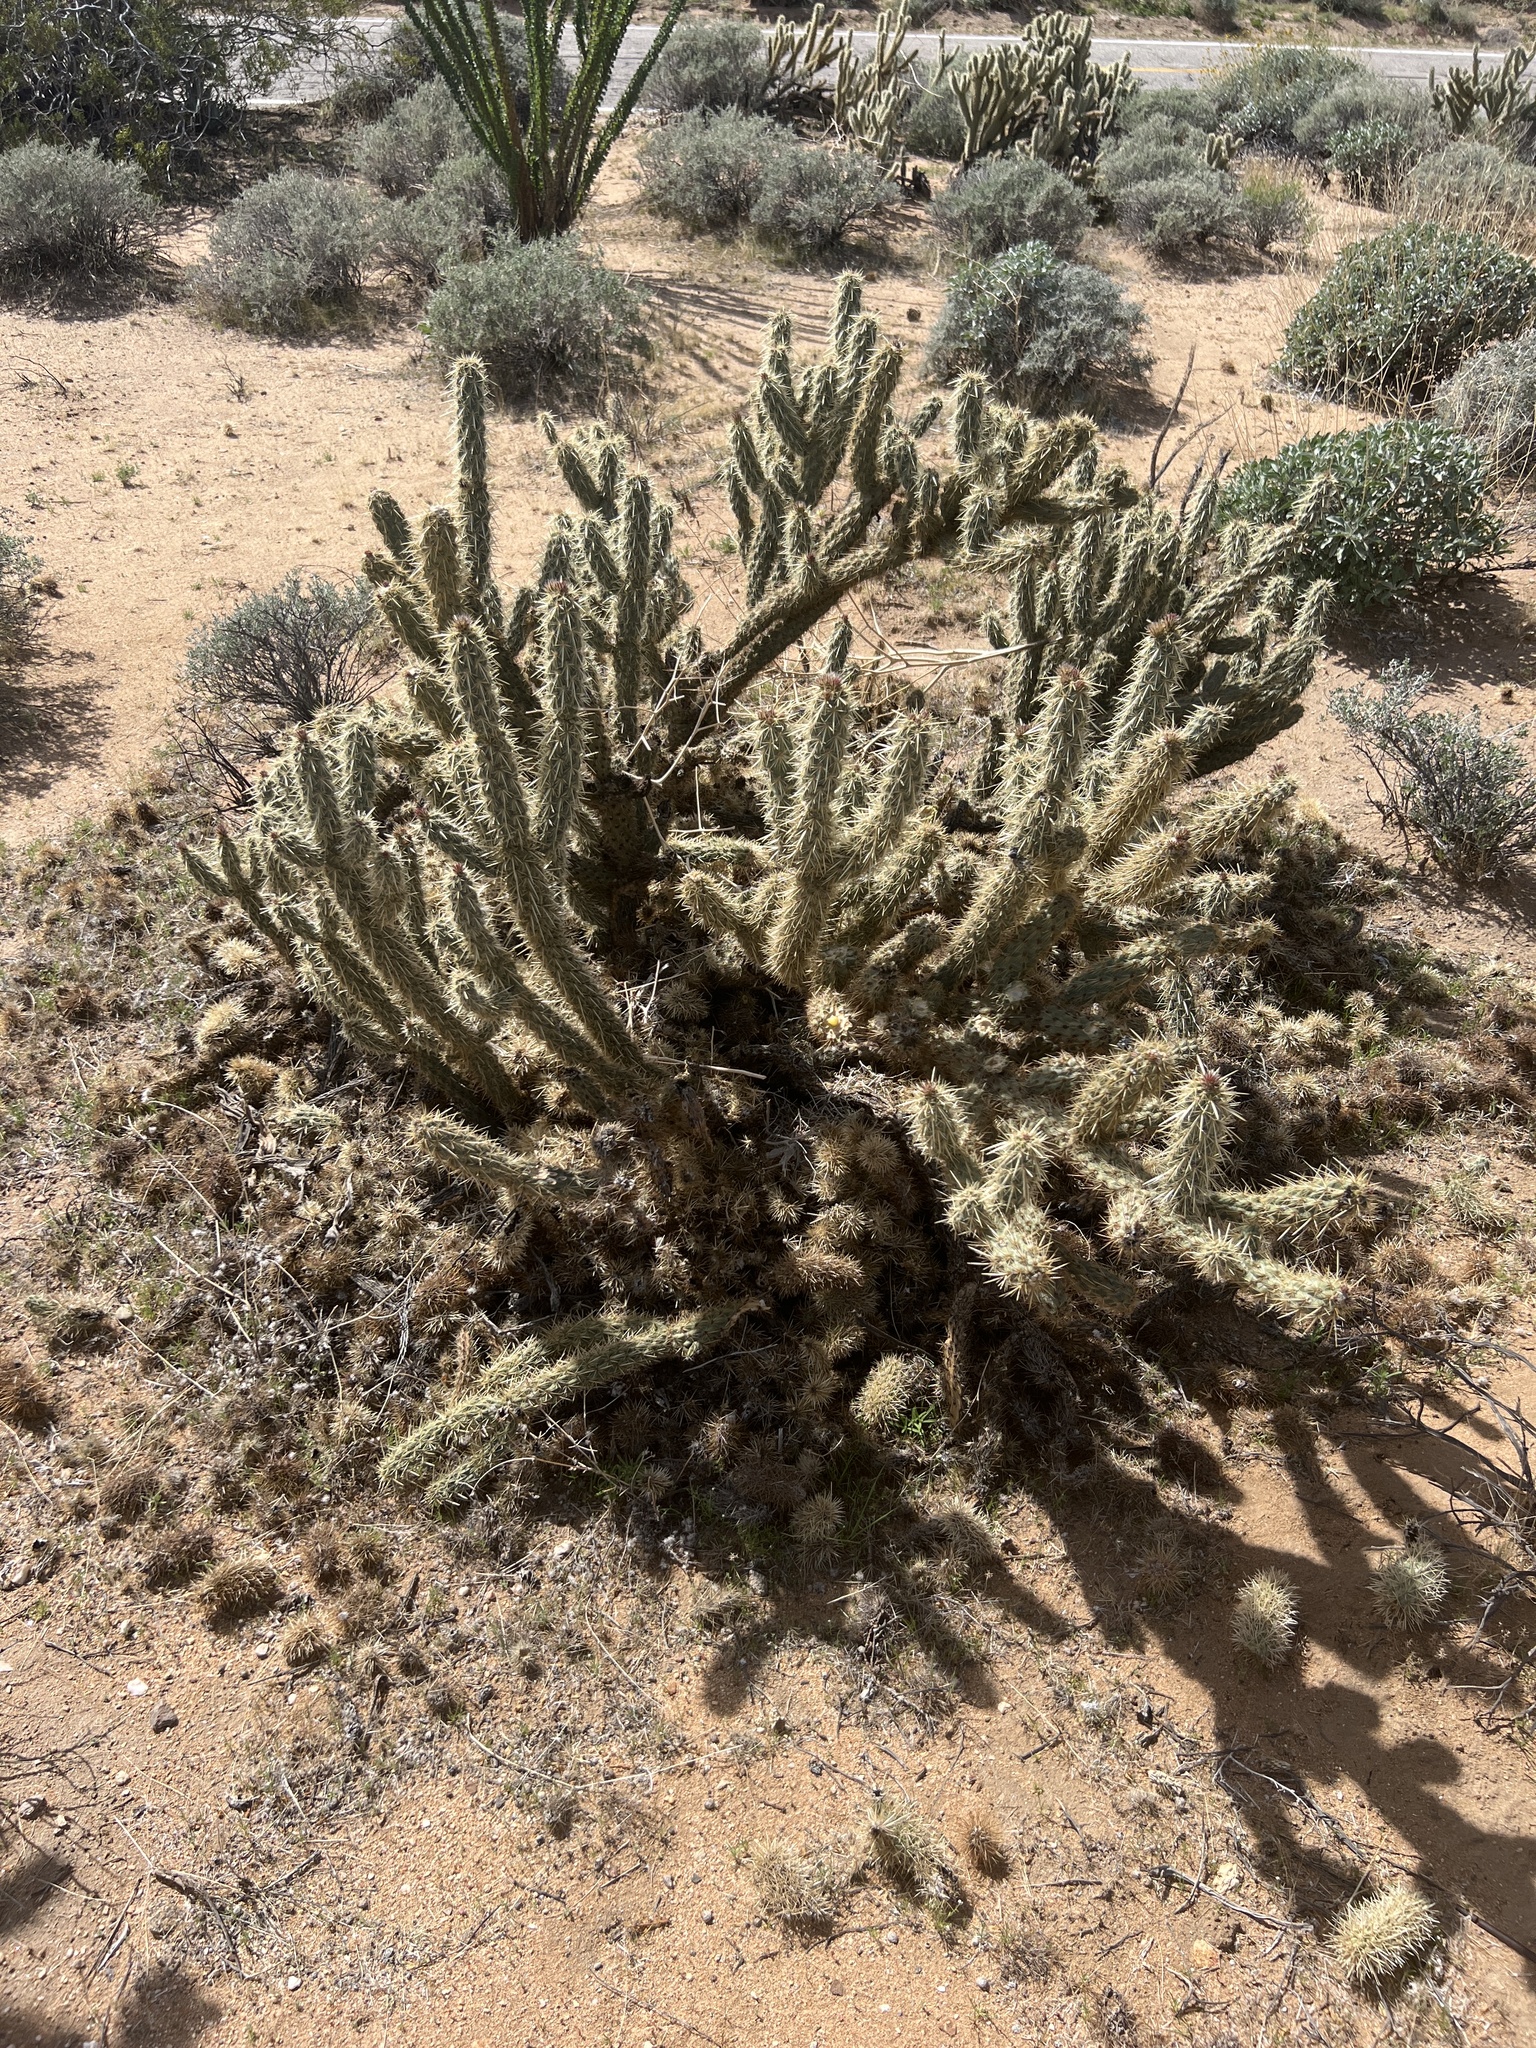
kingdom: Plantae
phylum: Tracheophyta
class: Magnoliopsida
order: Caryophyllales
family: Cactaceae
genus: Cylindropuntia
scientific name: Cylindropuntia ganderi
